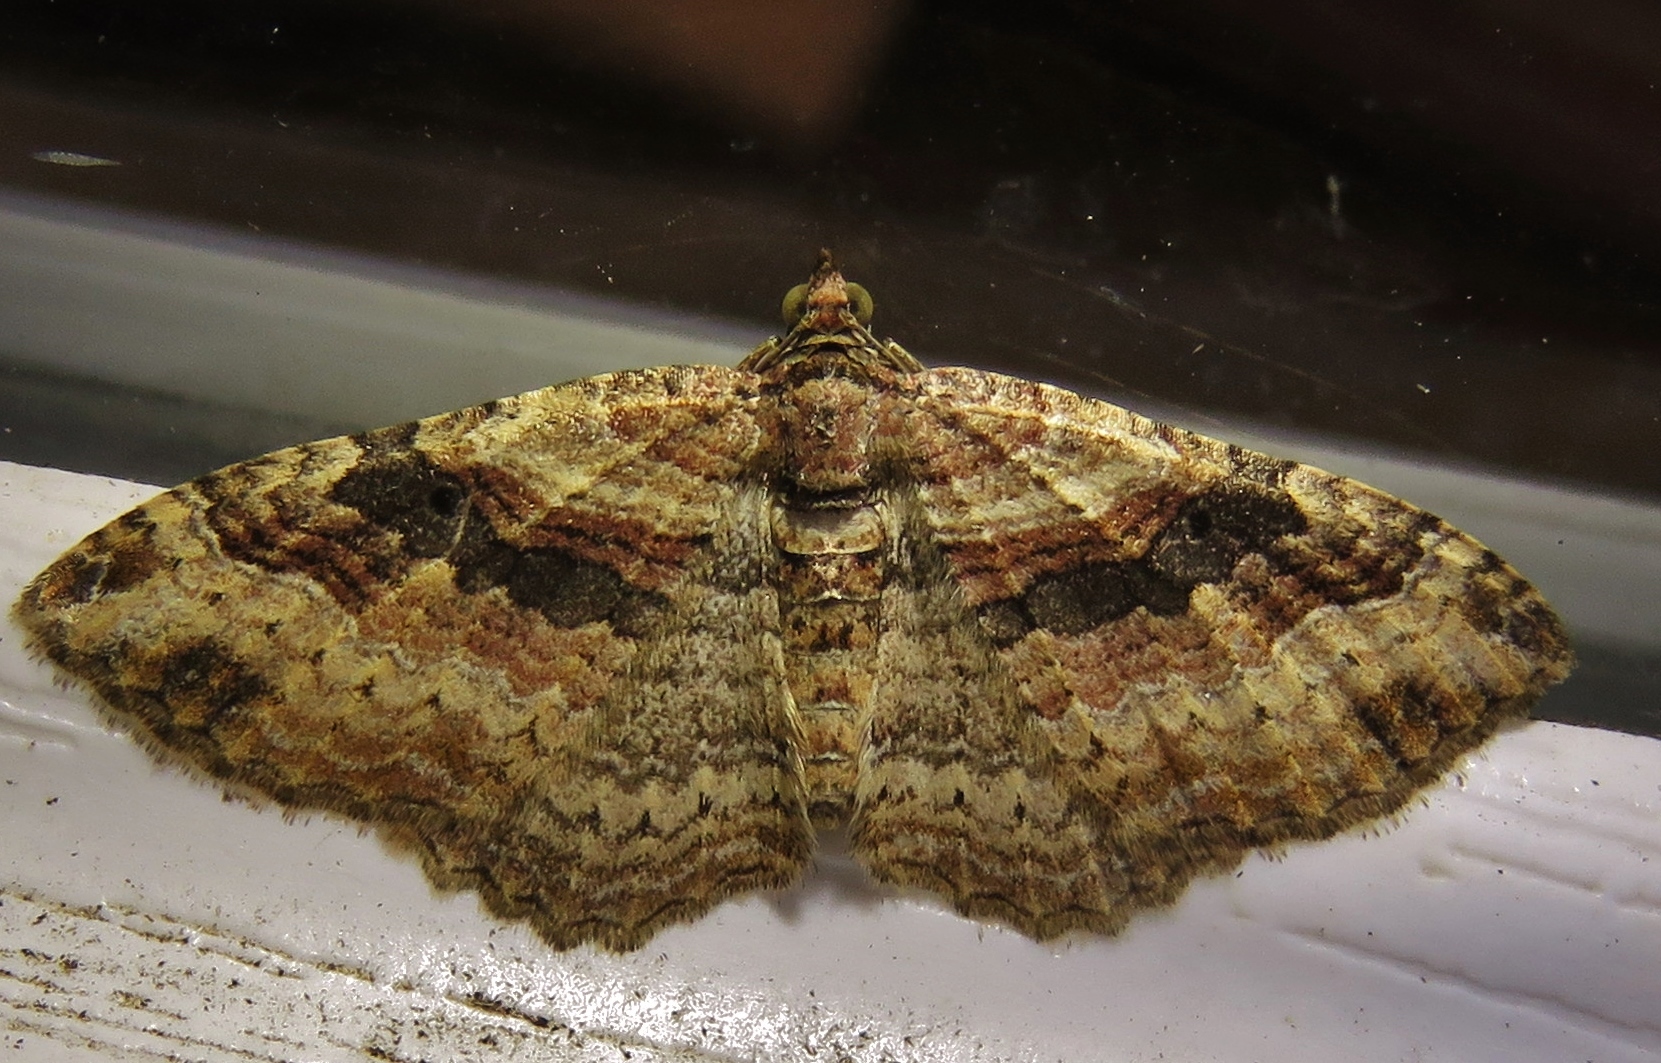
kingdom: Animalia
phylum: Arthropoda
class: Insecta
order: Lepidoptera
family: Geometridae
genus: Costaconvexa
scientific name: Costaconvexa centrostrigaria
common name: Bent-line carpet
